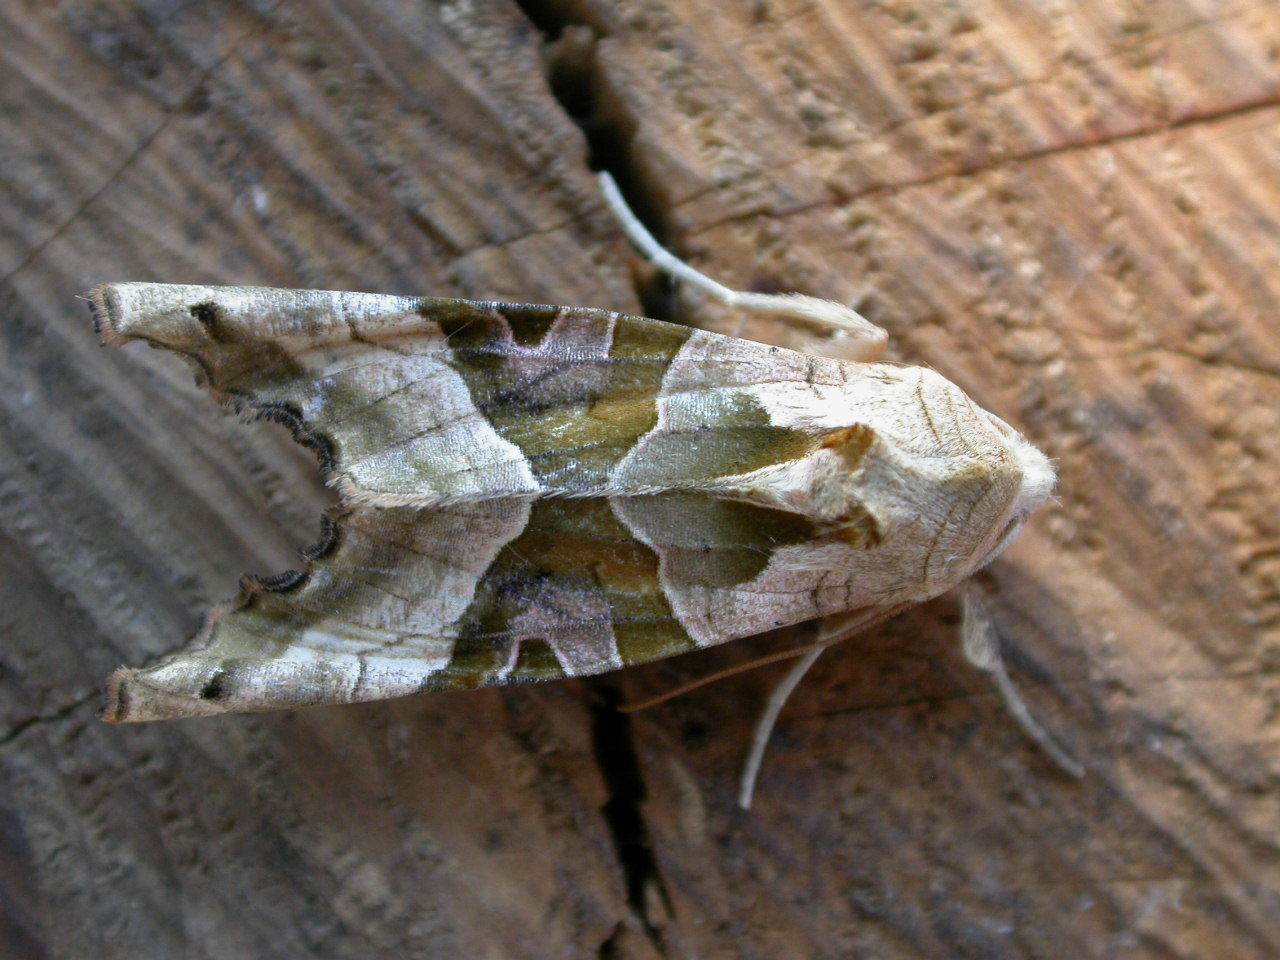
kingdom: Animalia
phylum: Arthropoda
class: Insecta
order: Lepidoptera
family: Noctuidae
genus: Phlogophora
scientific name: Phlogophora meticulosa
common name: Angle shades
